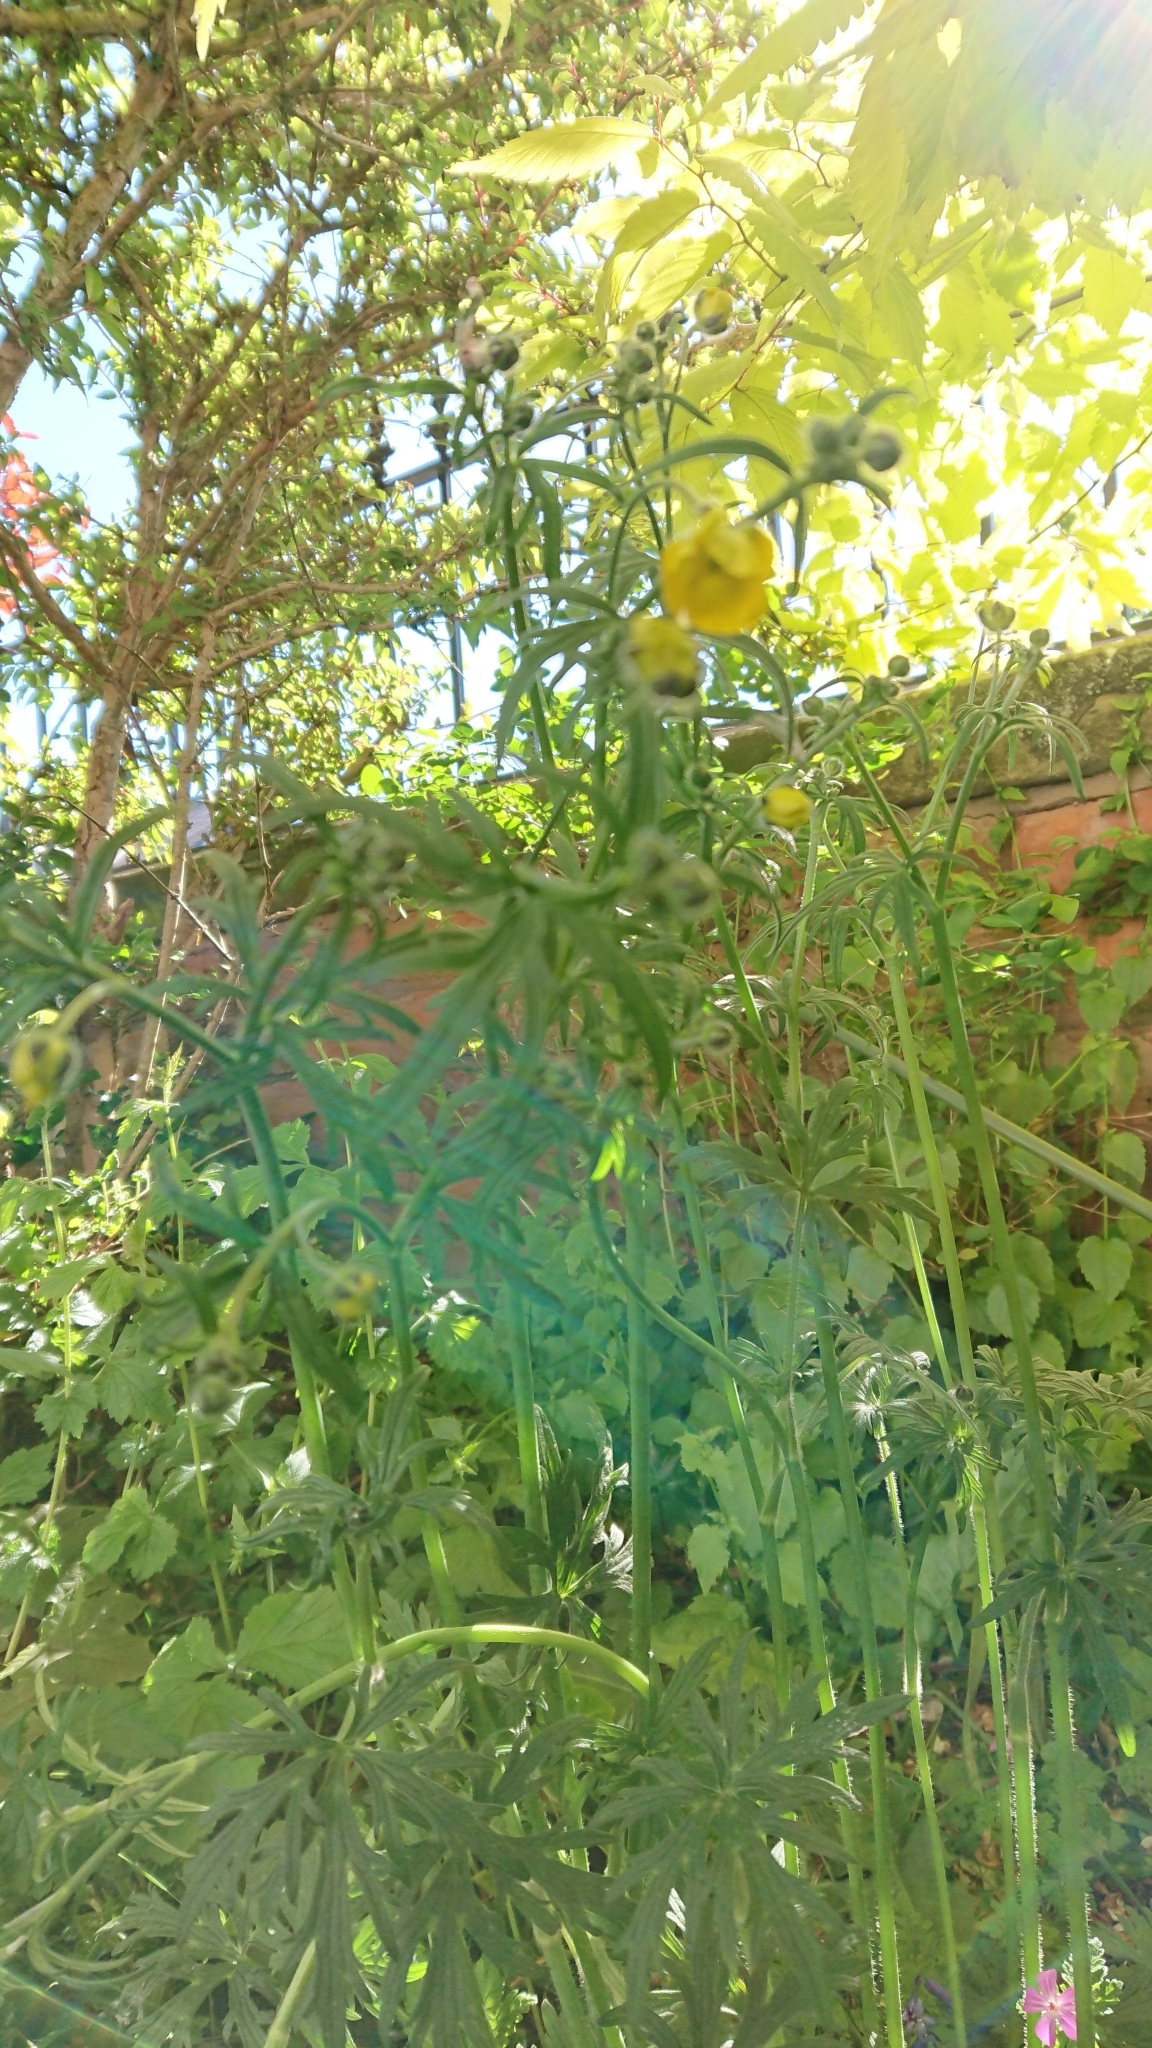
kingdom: Plantae
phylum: Tracheophyta
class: Magnoliopsida
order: Ranunculales
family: Ranunculaceae
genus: Ranunculus
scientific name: Ranunculus acris
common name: Meadow buttercup
